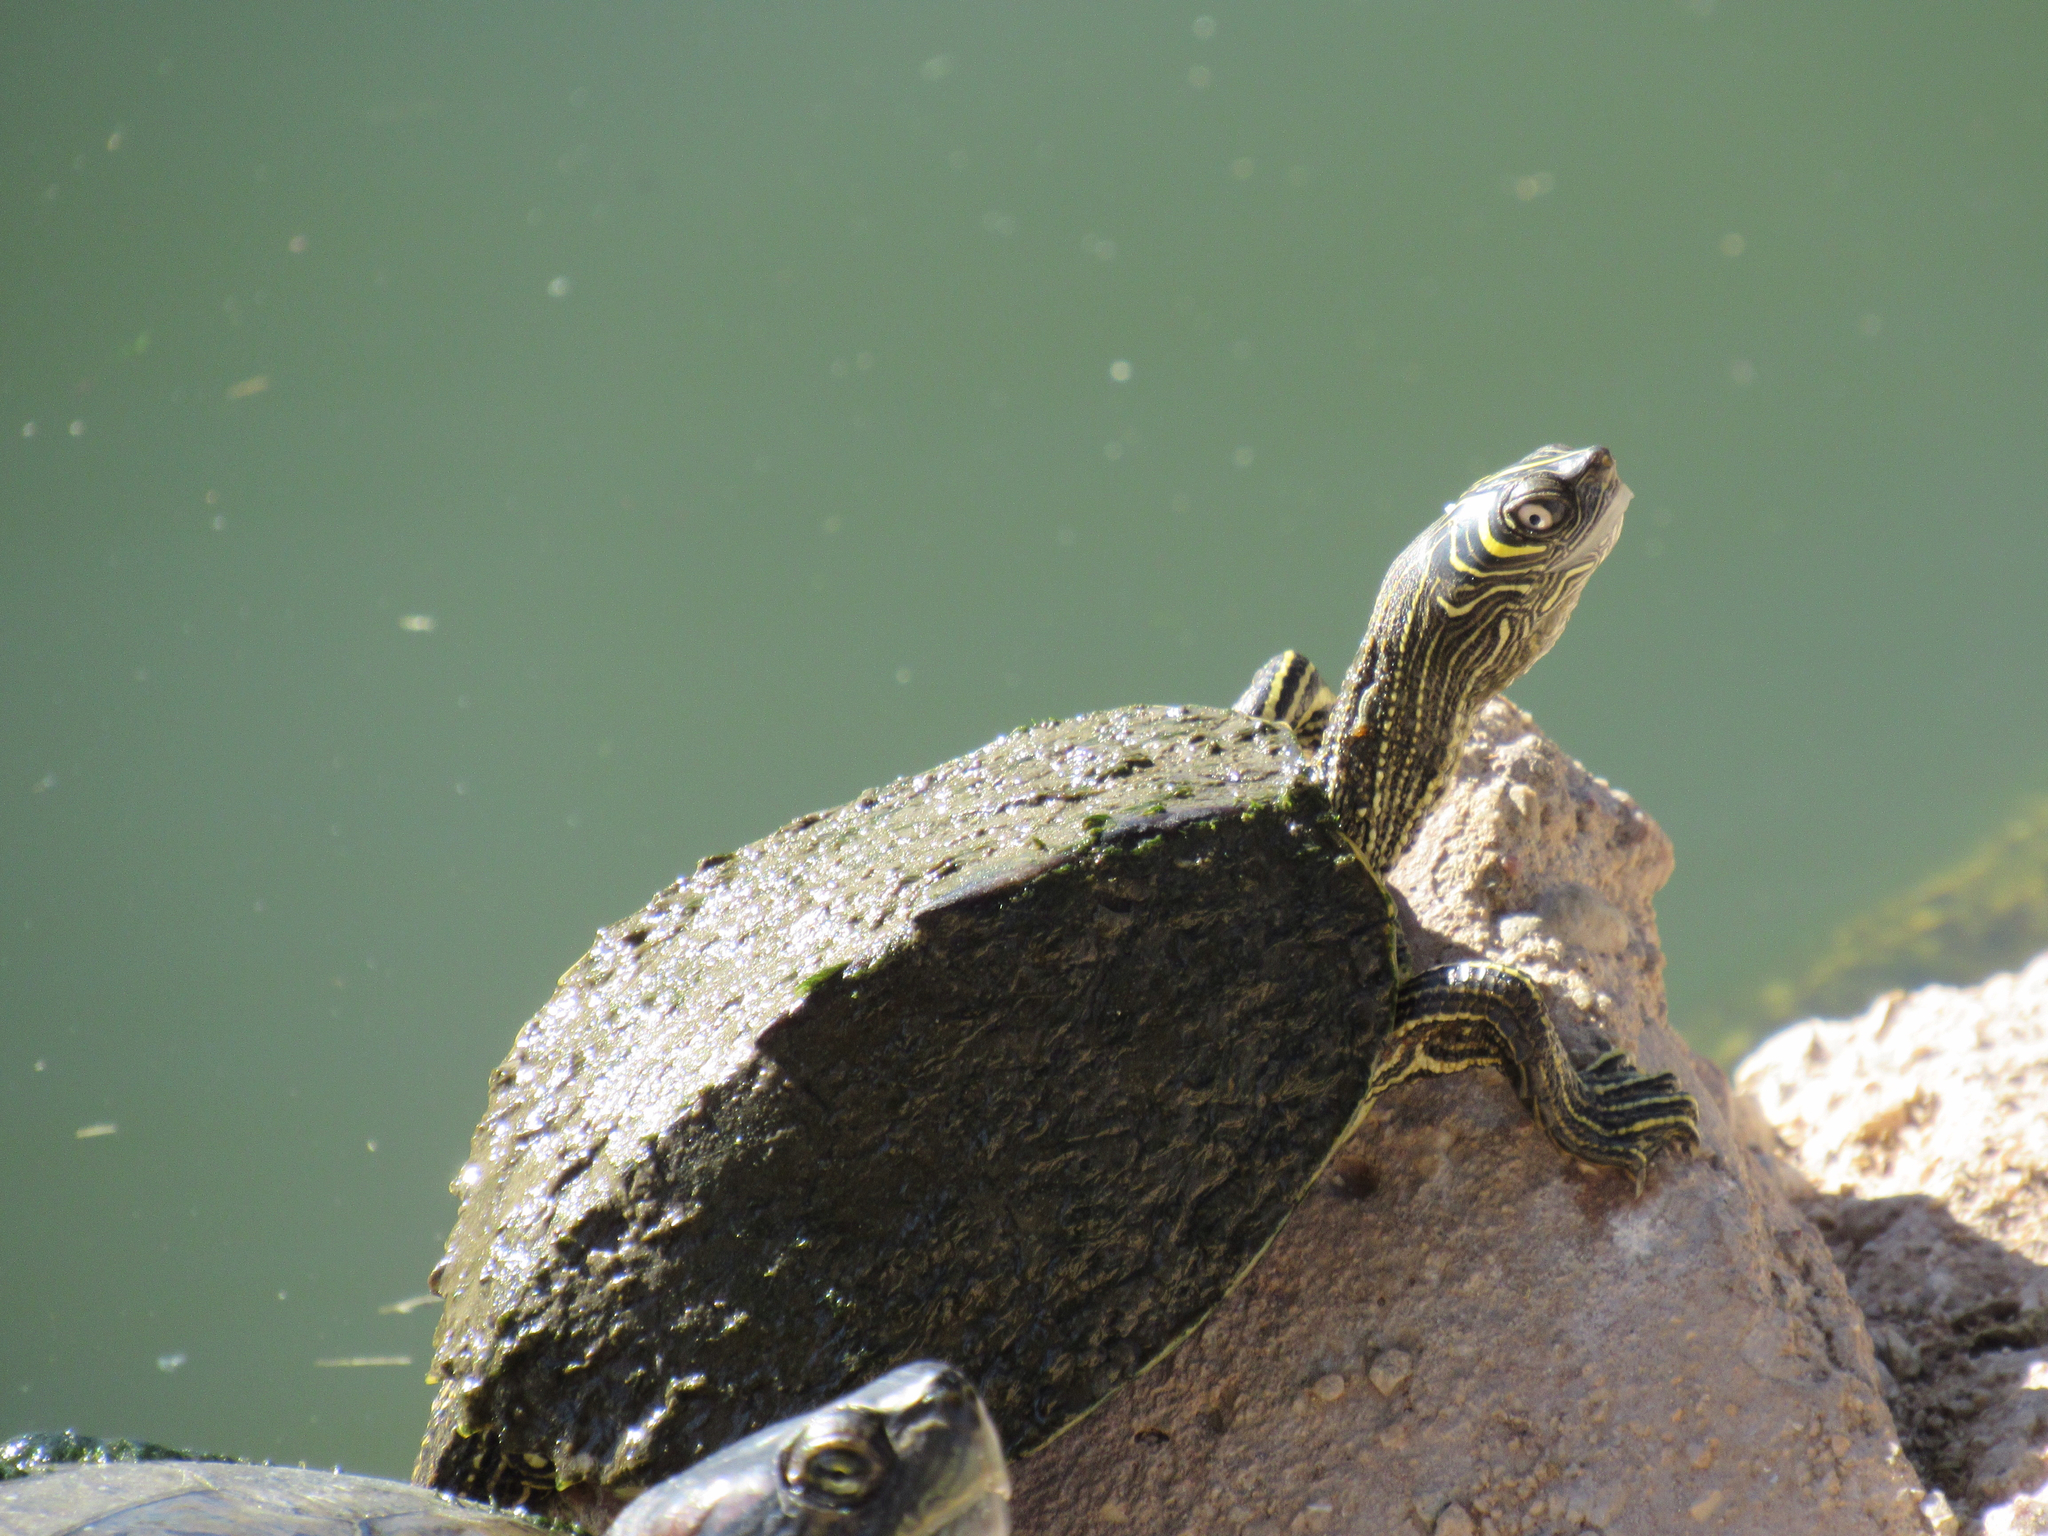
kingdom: Animalia
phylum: Chordata
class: Testudines
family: Emydidae
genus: Graptemys
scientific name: Graptemys pseudogeographica
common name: False map turtle
